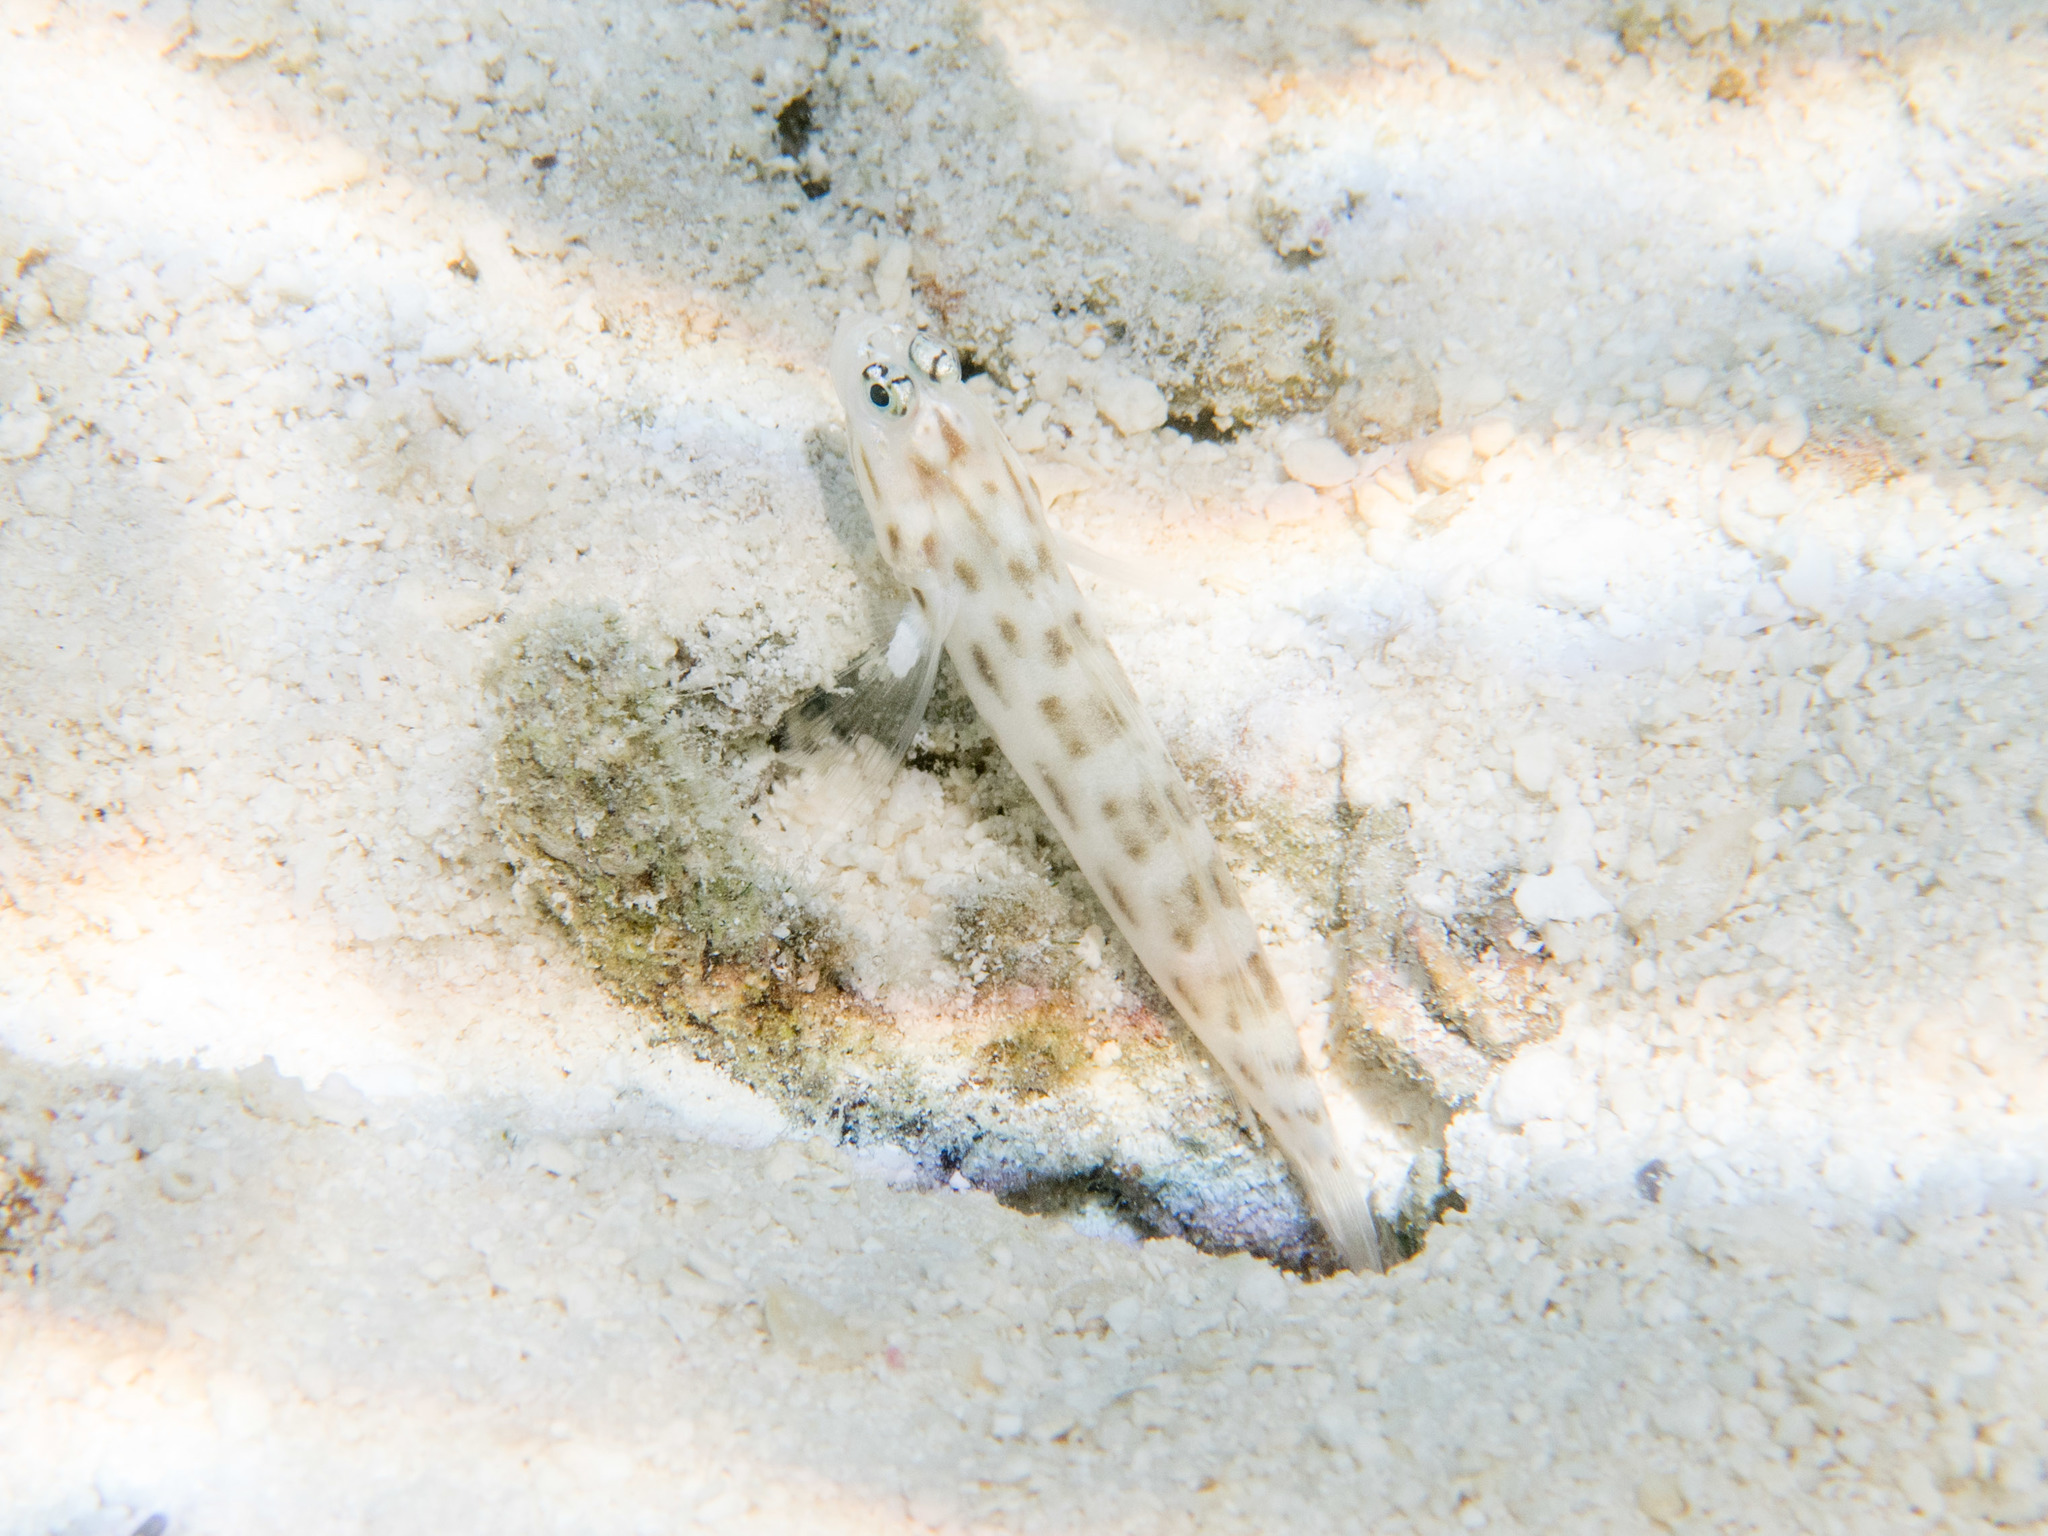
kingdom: Animalia
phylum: Chordata
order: Perciformes
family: Gobiidae
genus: Ctenogobiops
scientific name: Ctenogobiops feroculus
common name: Fierce shrimpgoby
